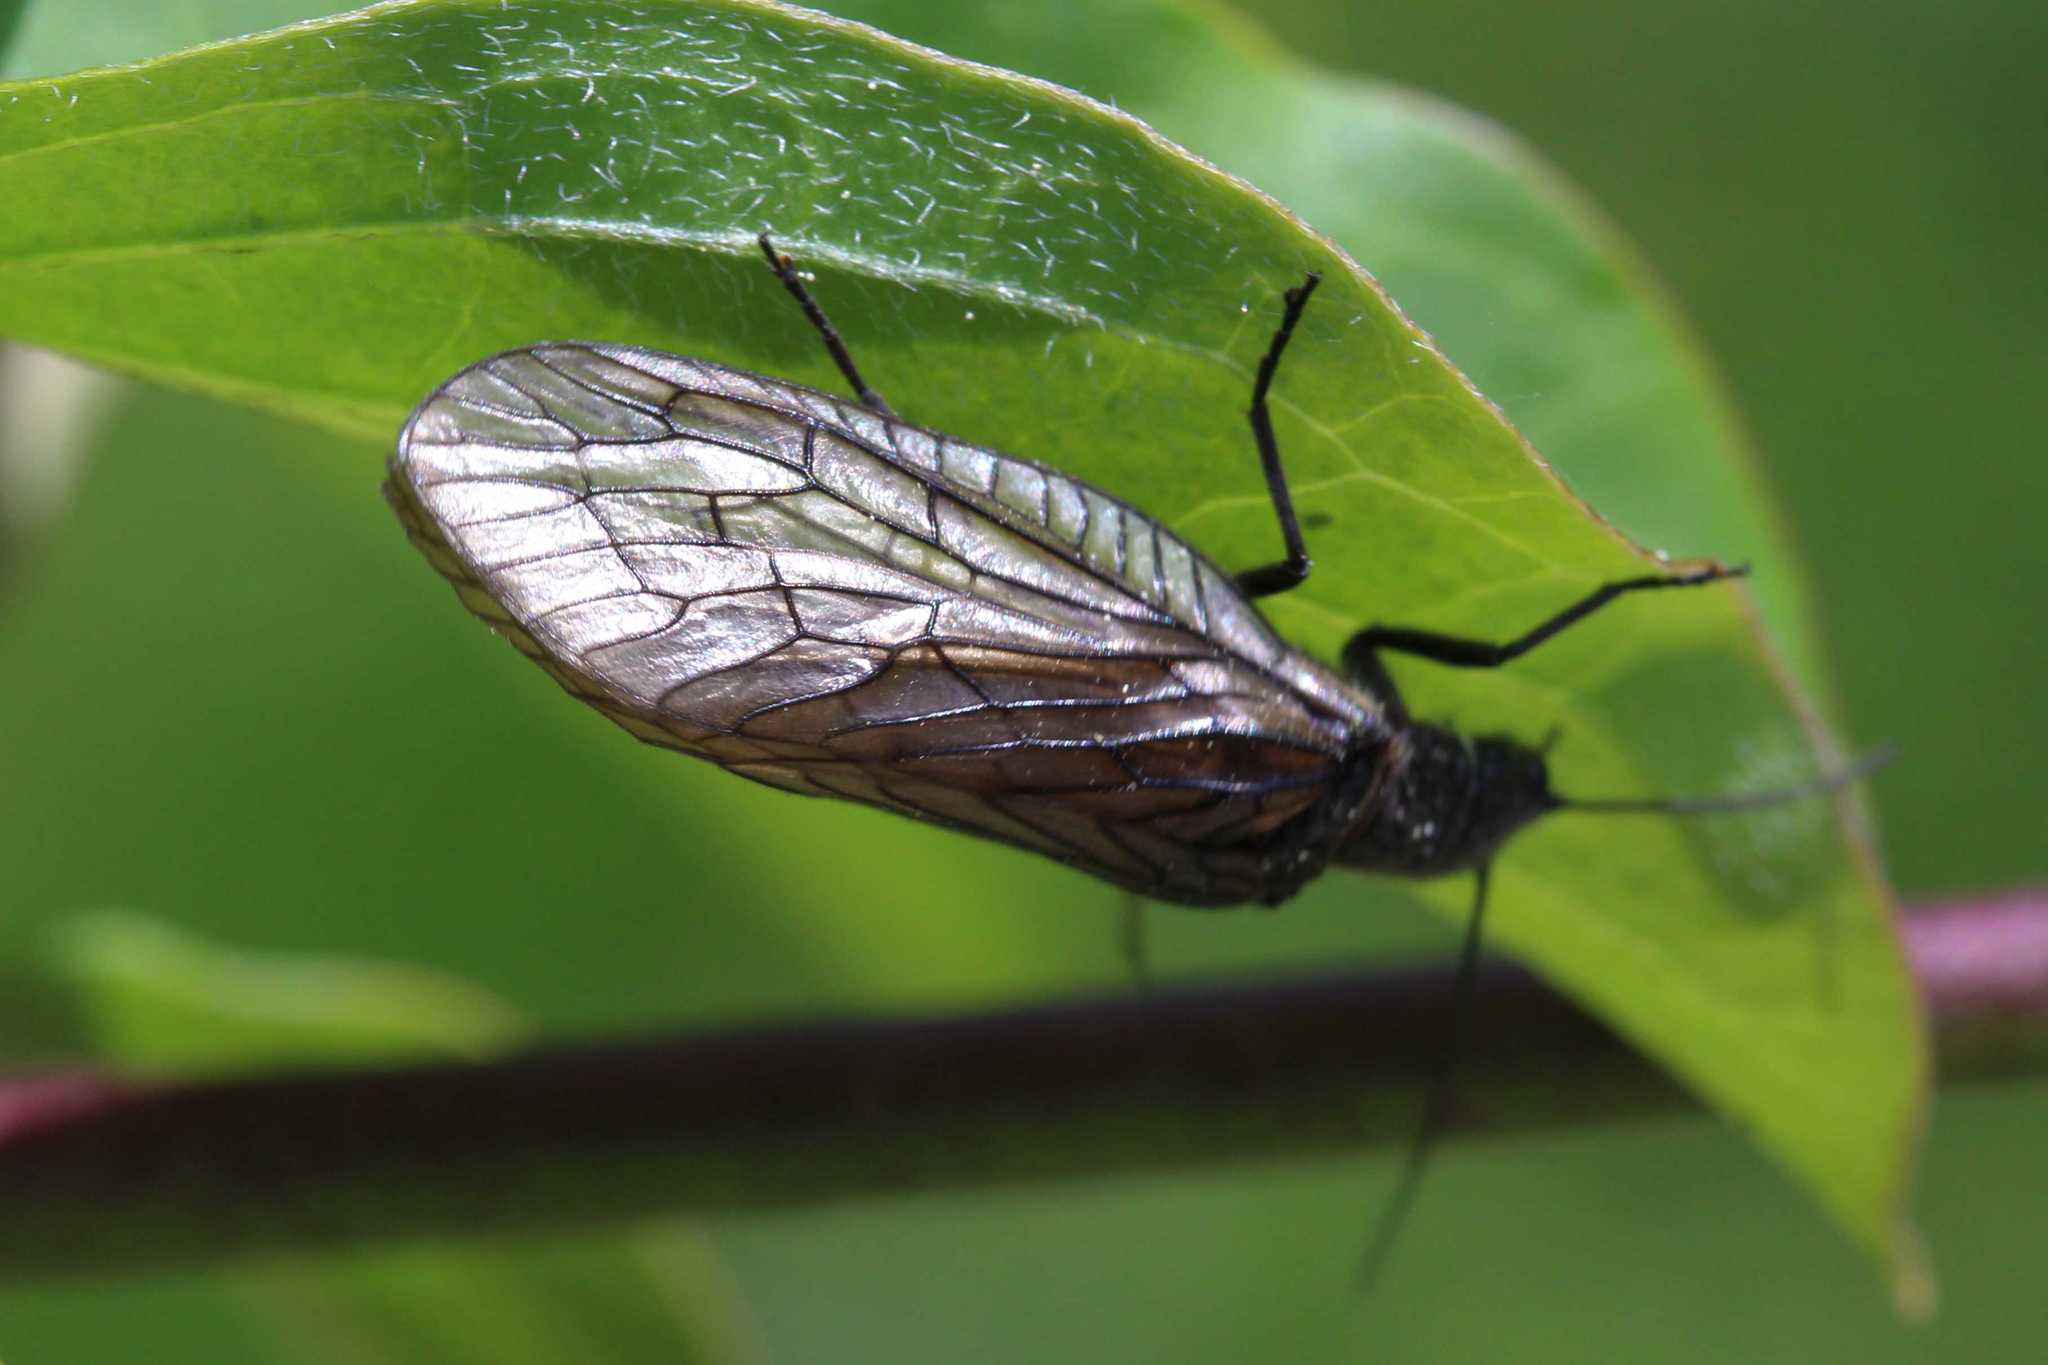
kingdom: Animalia
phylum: Arthropoda
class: Insecta
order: Megaloptera
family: Sialidae
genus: Sialis
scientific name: Sialis
